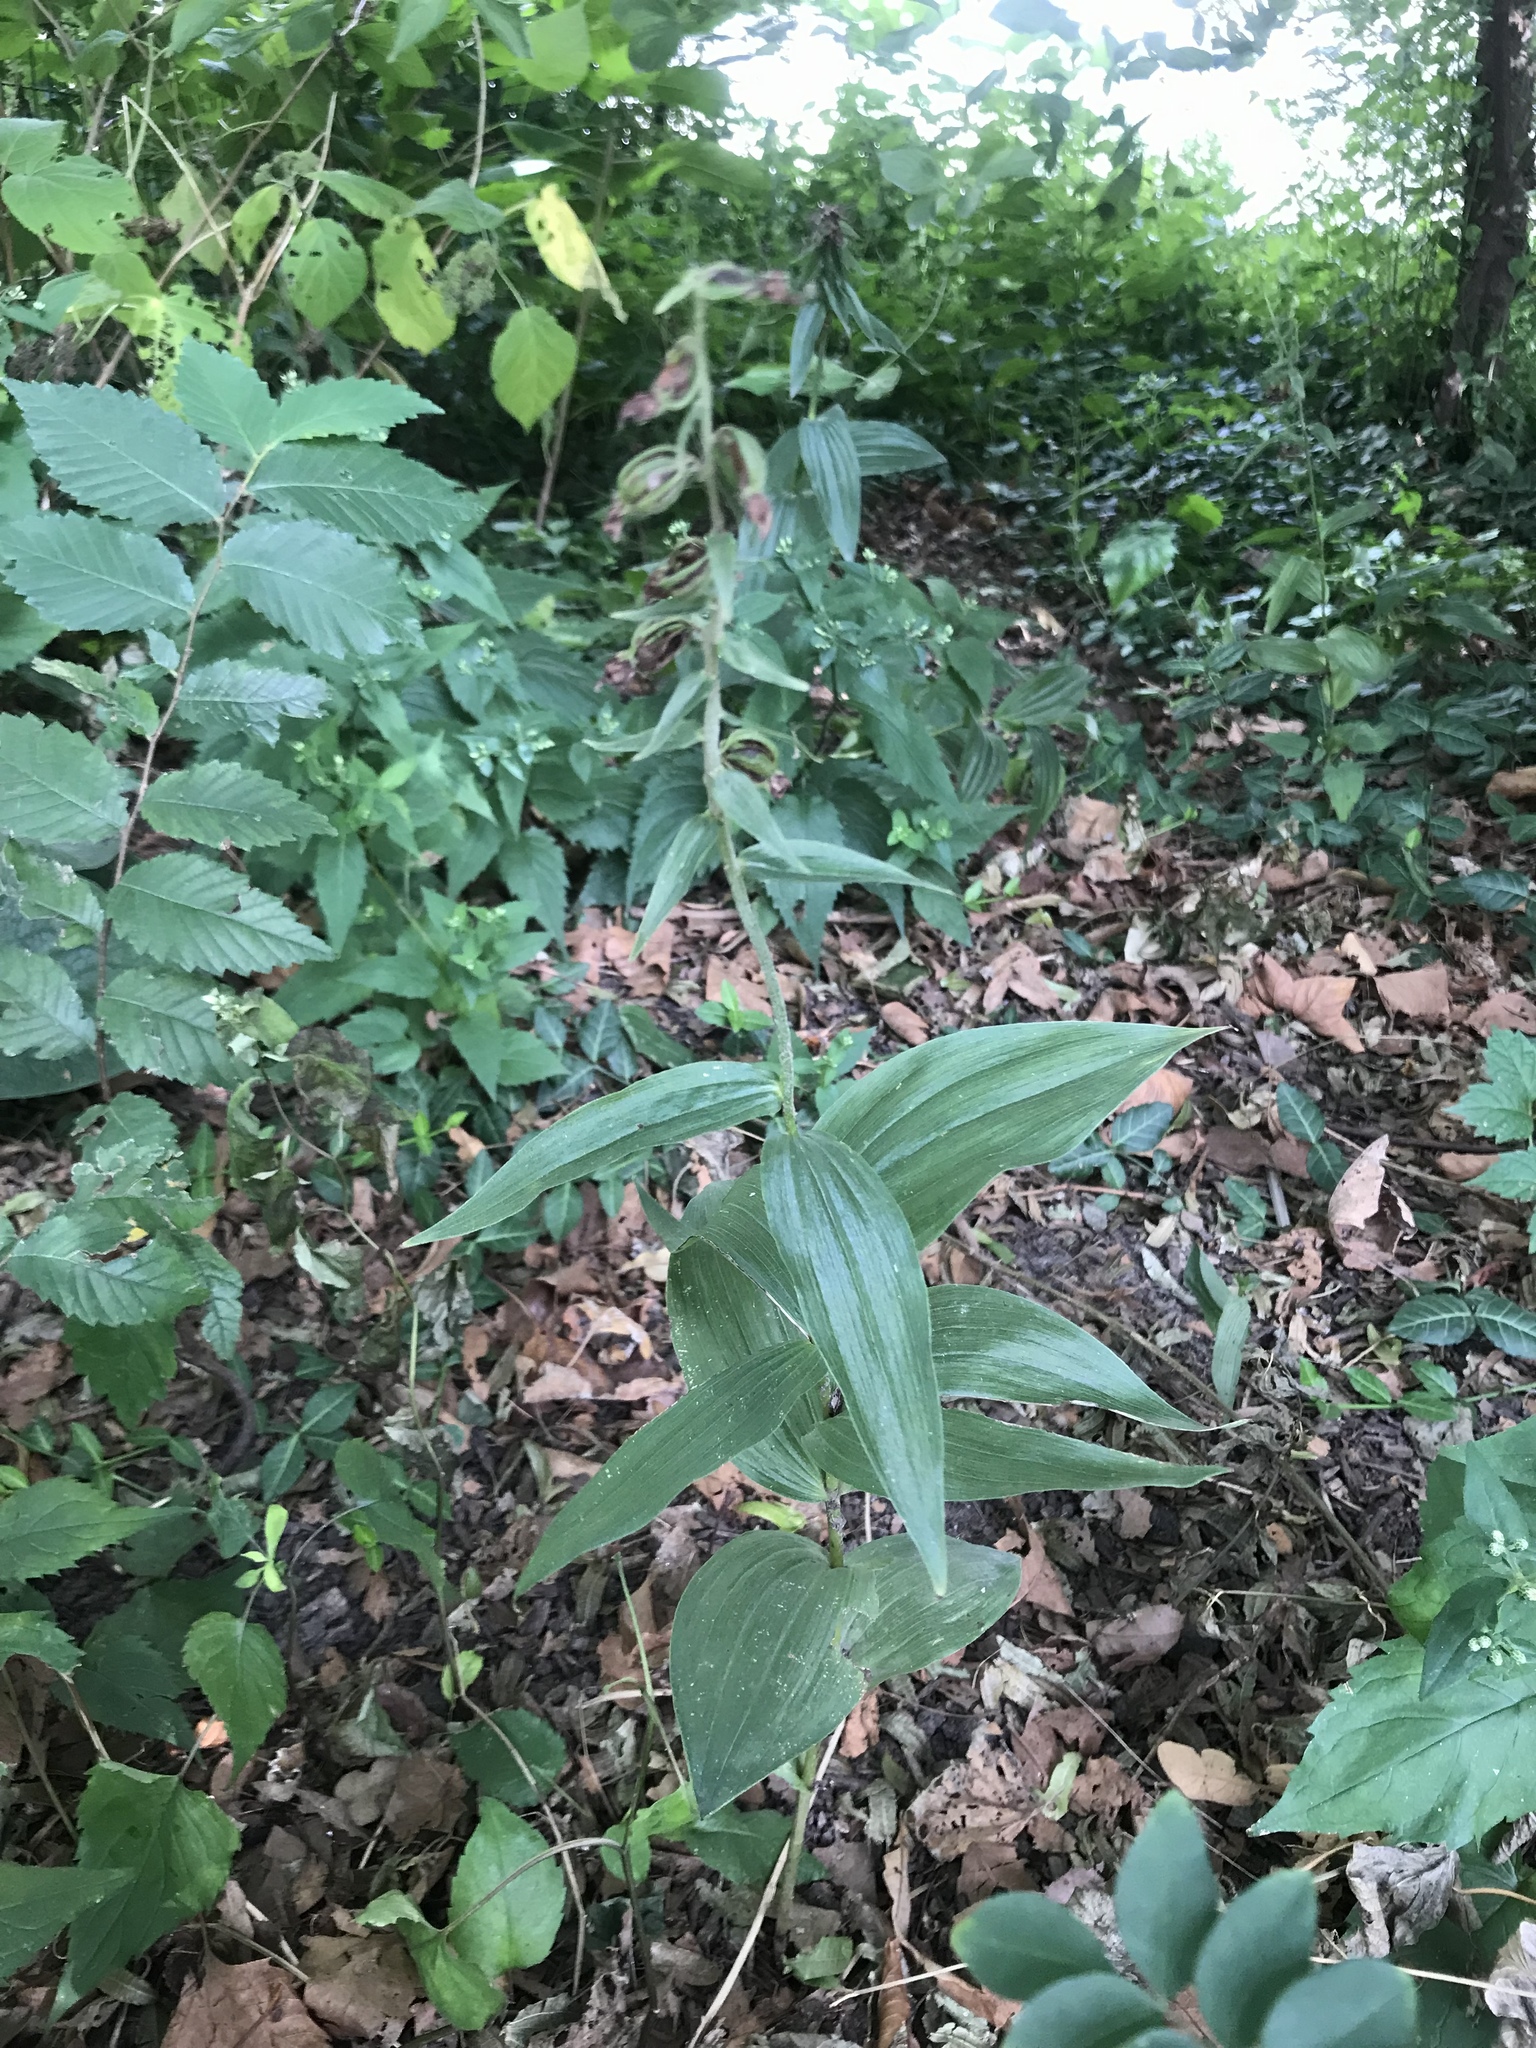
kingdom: Plantae
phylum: Tracheophyta
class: Liliopsida
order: Asparagales
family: Orchidaceae
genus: Epipactis
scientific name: Epipactis helleborine
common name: Broad-leaved helleborine
